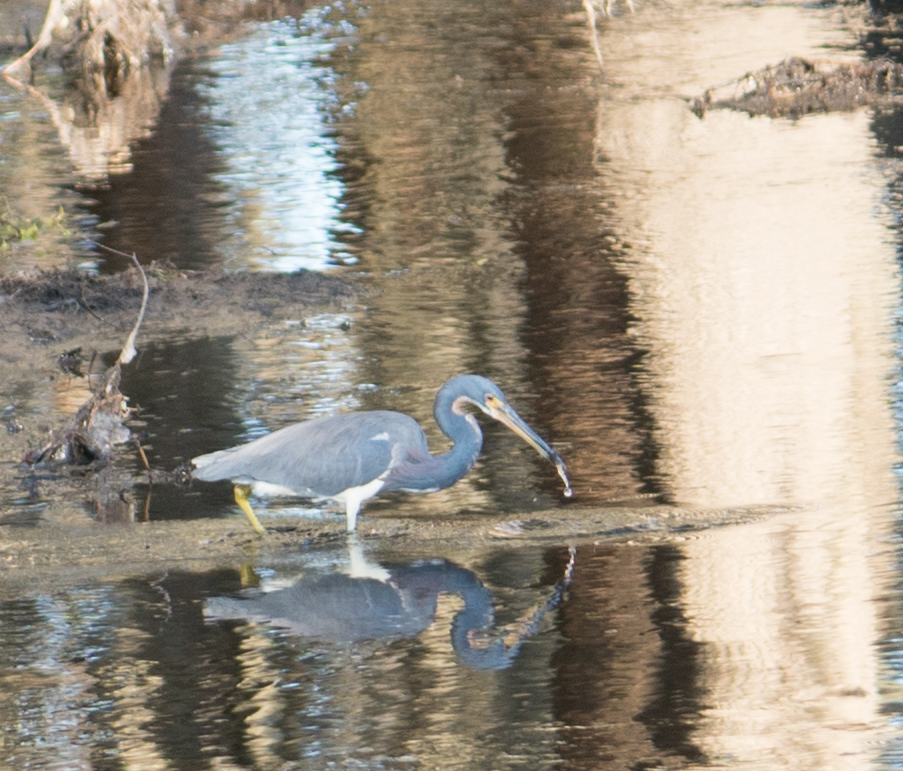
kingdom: Animalia
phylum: Chordata
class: Aves
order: Pelecaniformes
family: Ardeidae
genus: Egretta
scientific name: Egretta tricolor
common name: Tricolored heron
